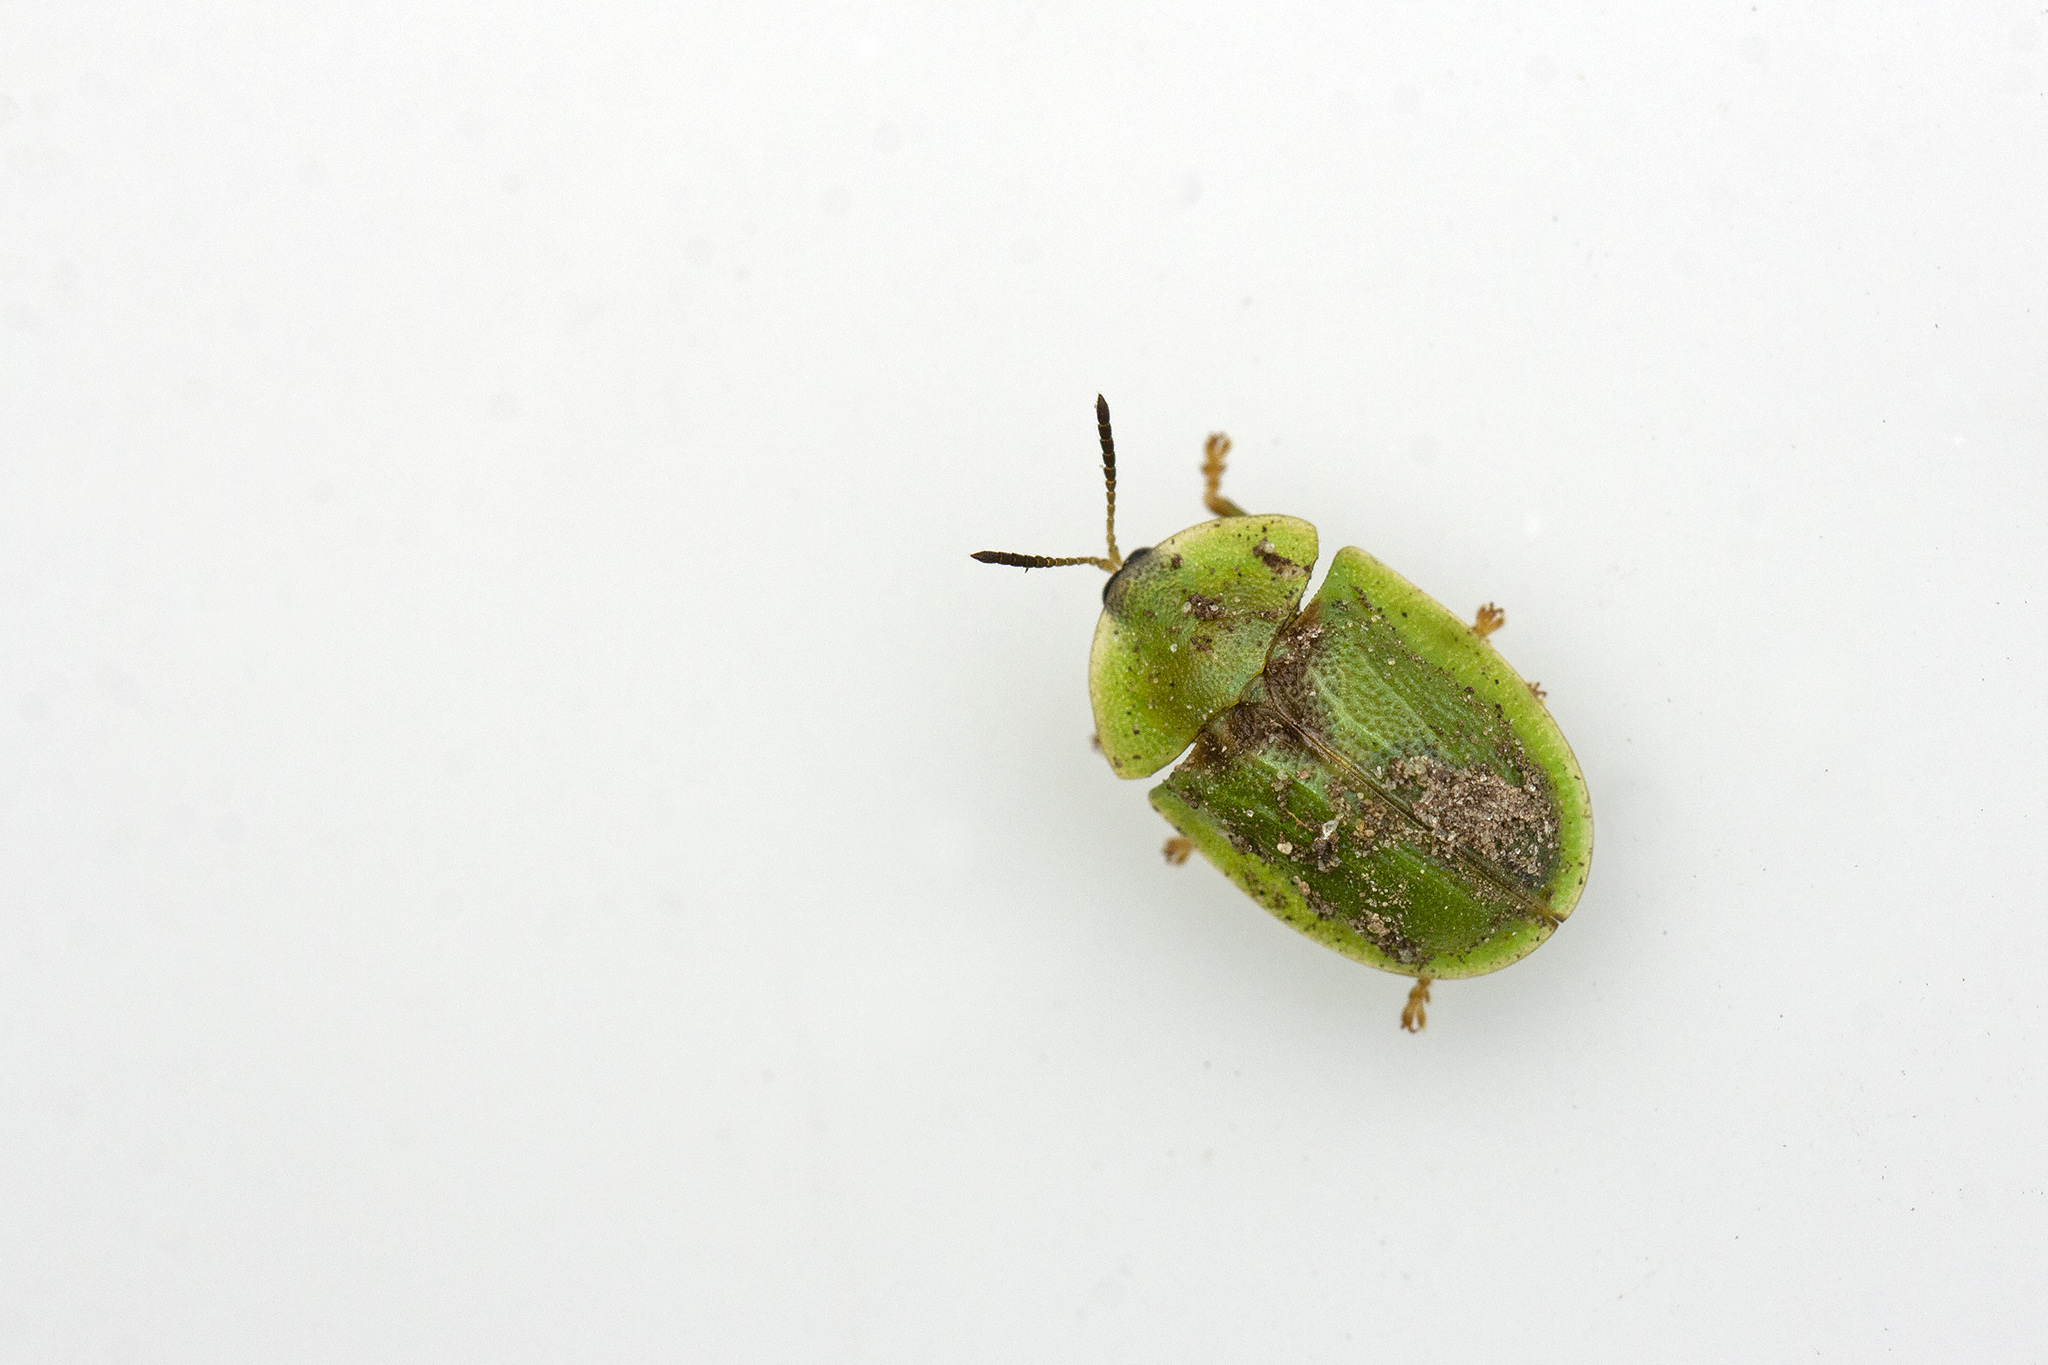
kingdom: Animalia
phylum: Arthropoda
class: Insecta
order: Coleoptera
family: Chrysomelidae
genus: Cassida
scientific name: Cassida sanguinosa
